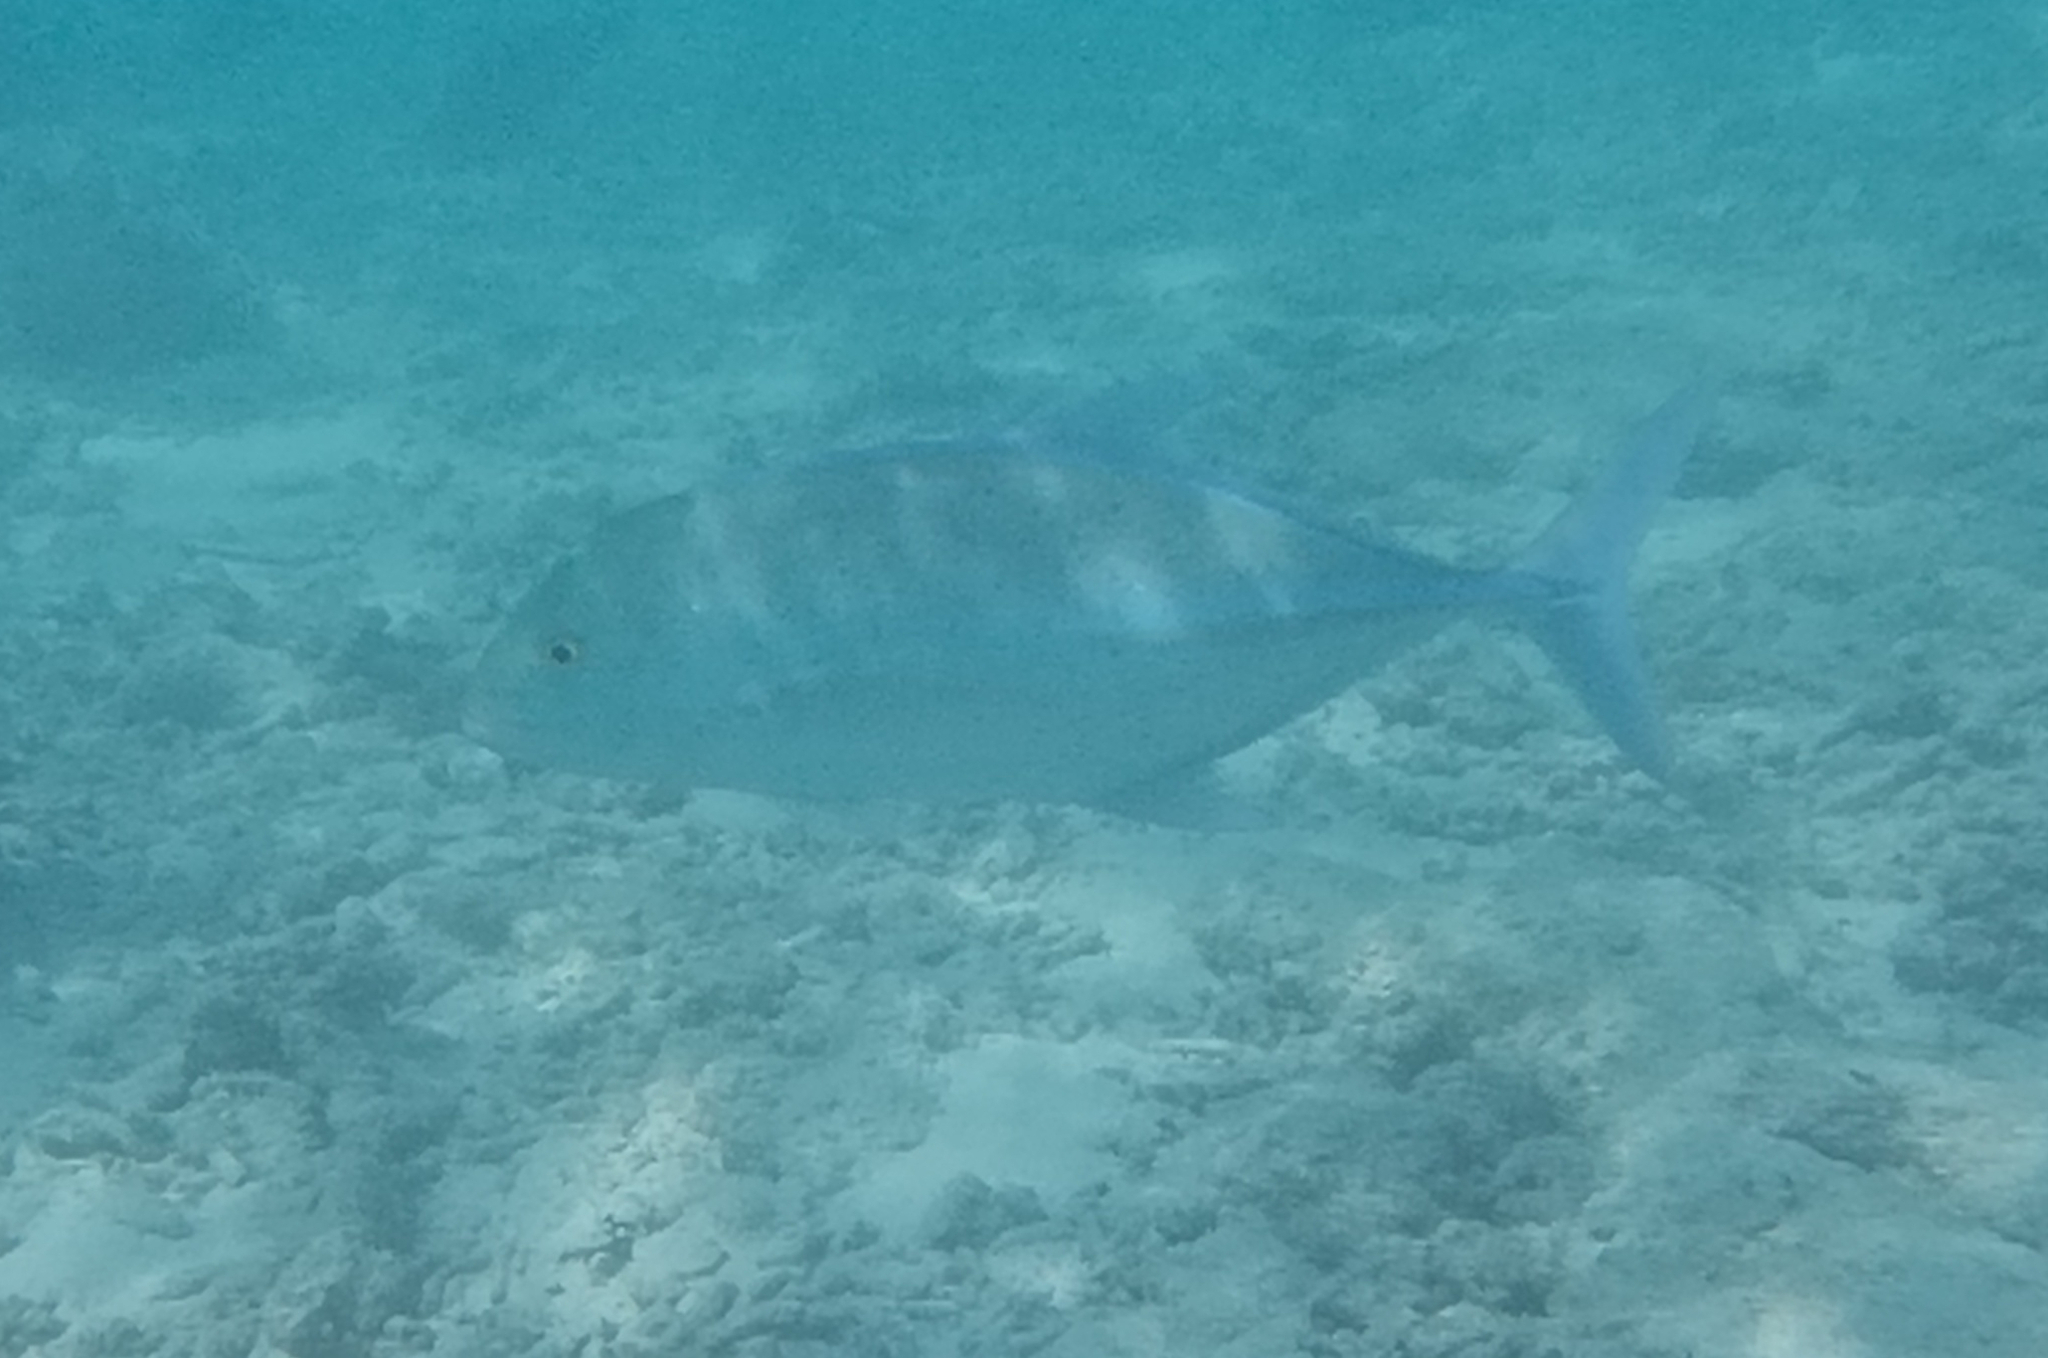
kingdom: Animalia
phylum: Chordata
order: Perciformes
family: Carangidae
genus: Caranx
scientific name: Caranx melampygus
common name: Bluefin trevally
